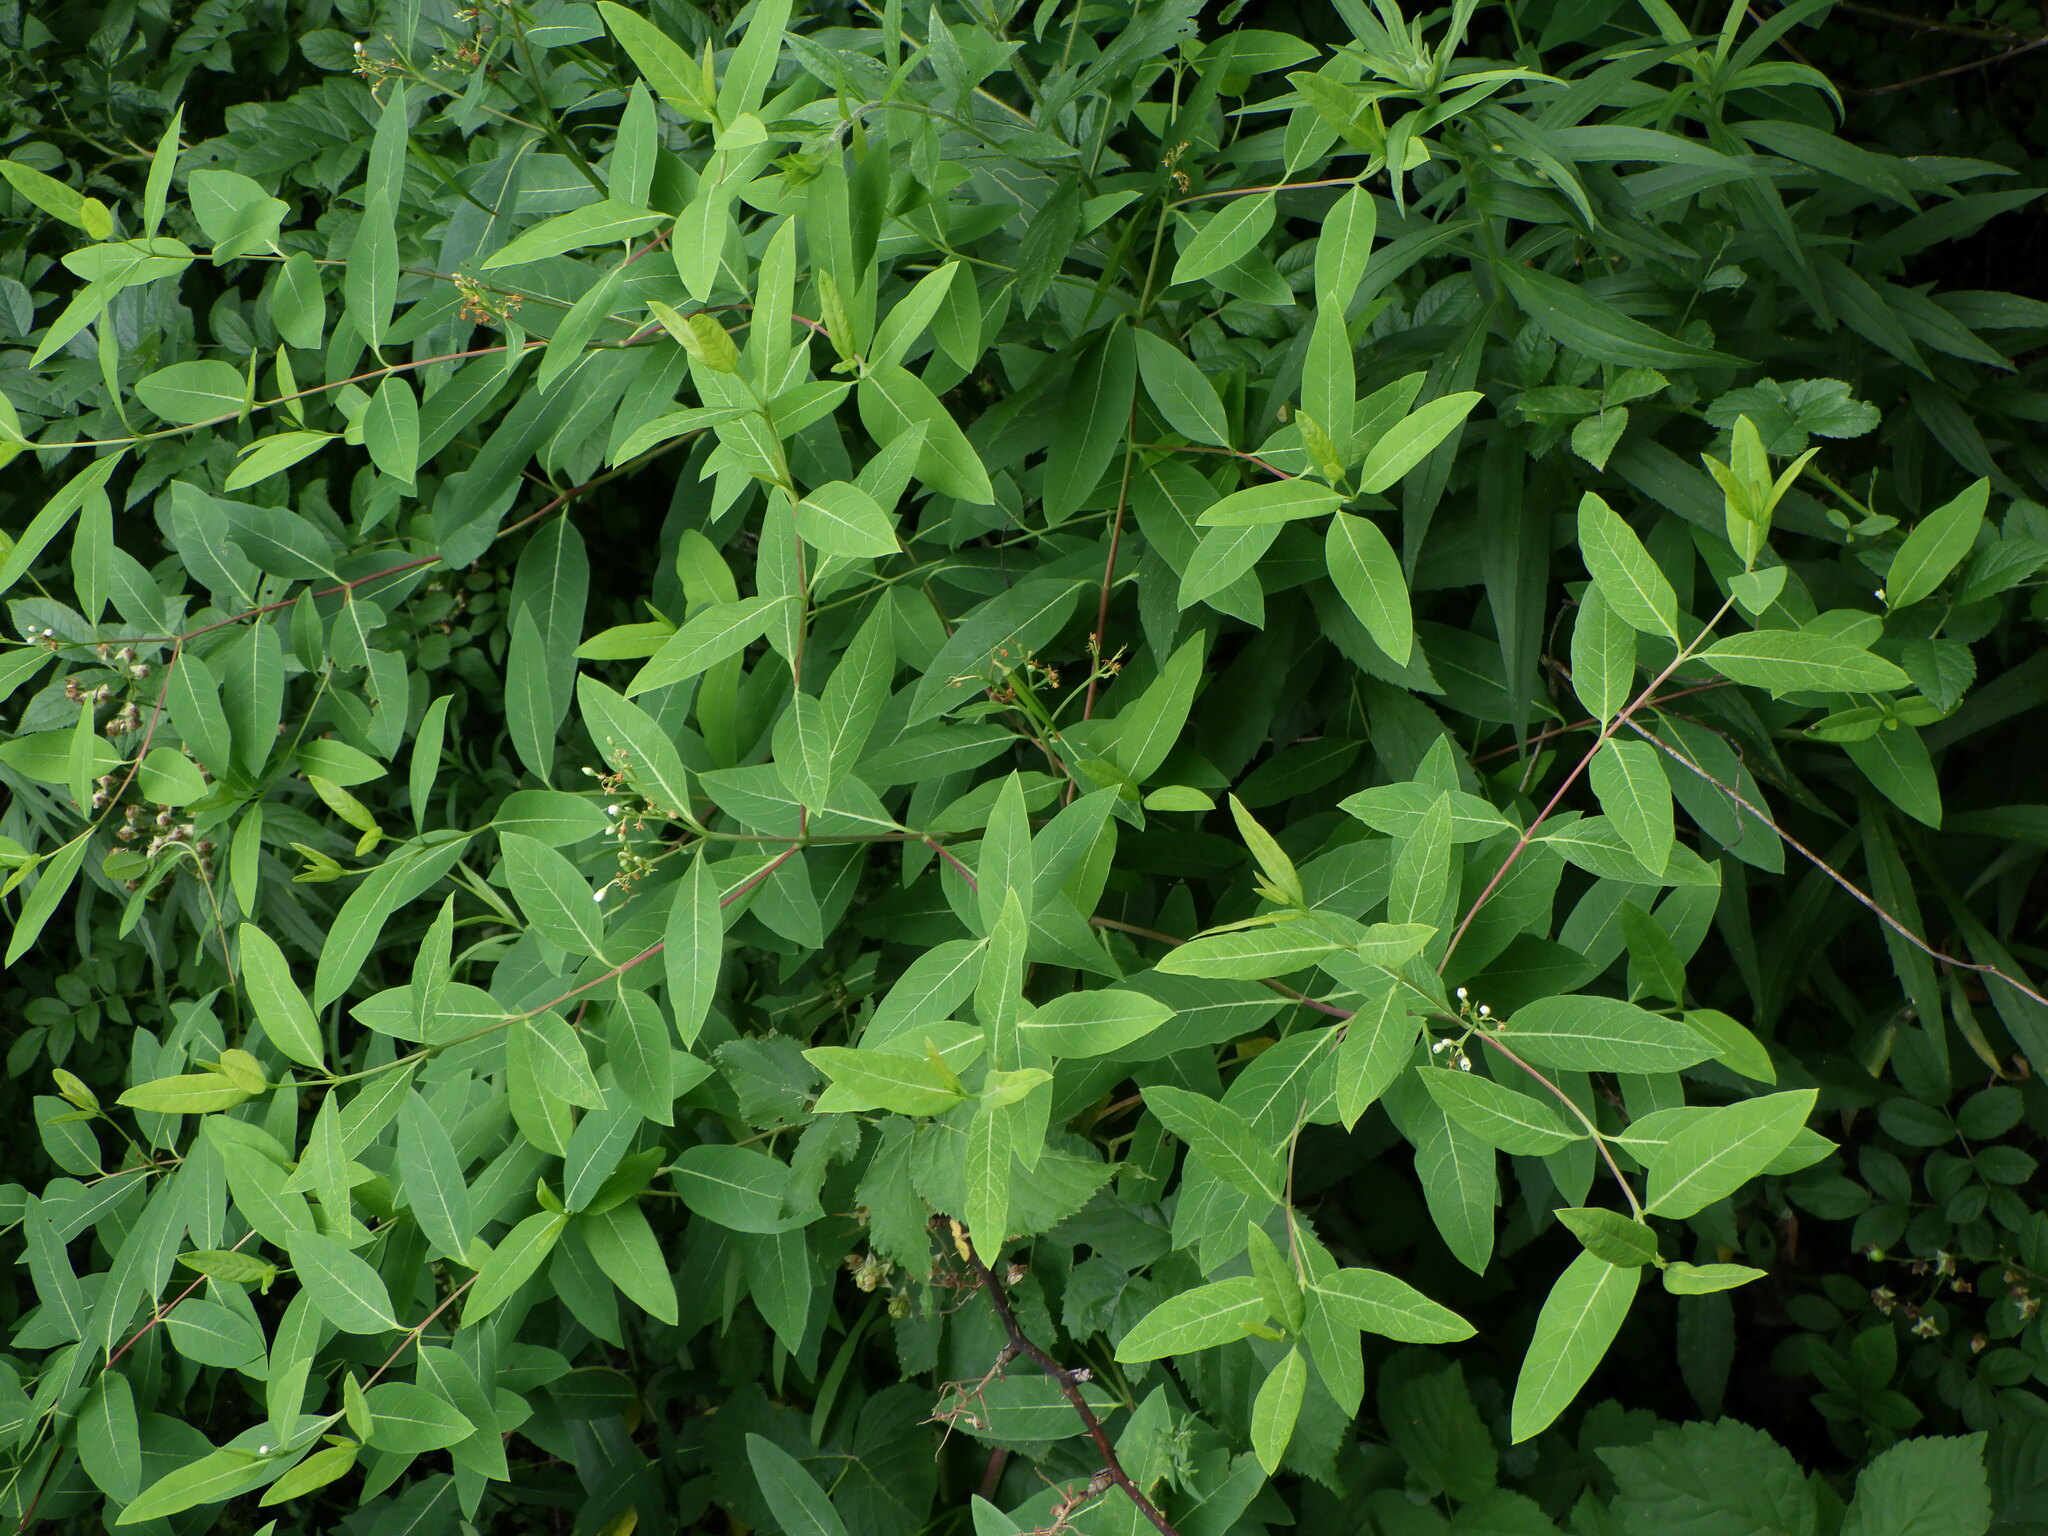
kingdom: Plantae
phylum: Tracheophyta
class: Magnoliopsida
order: Gentianales
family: Apocynaceae
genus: Apocynum
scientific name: Apocynum cannabinum
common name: Hemp dogbane
